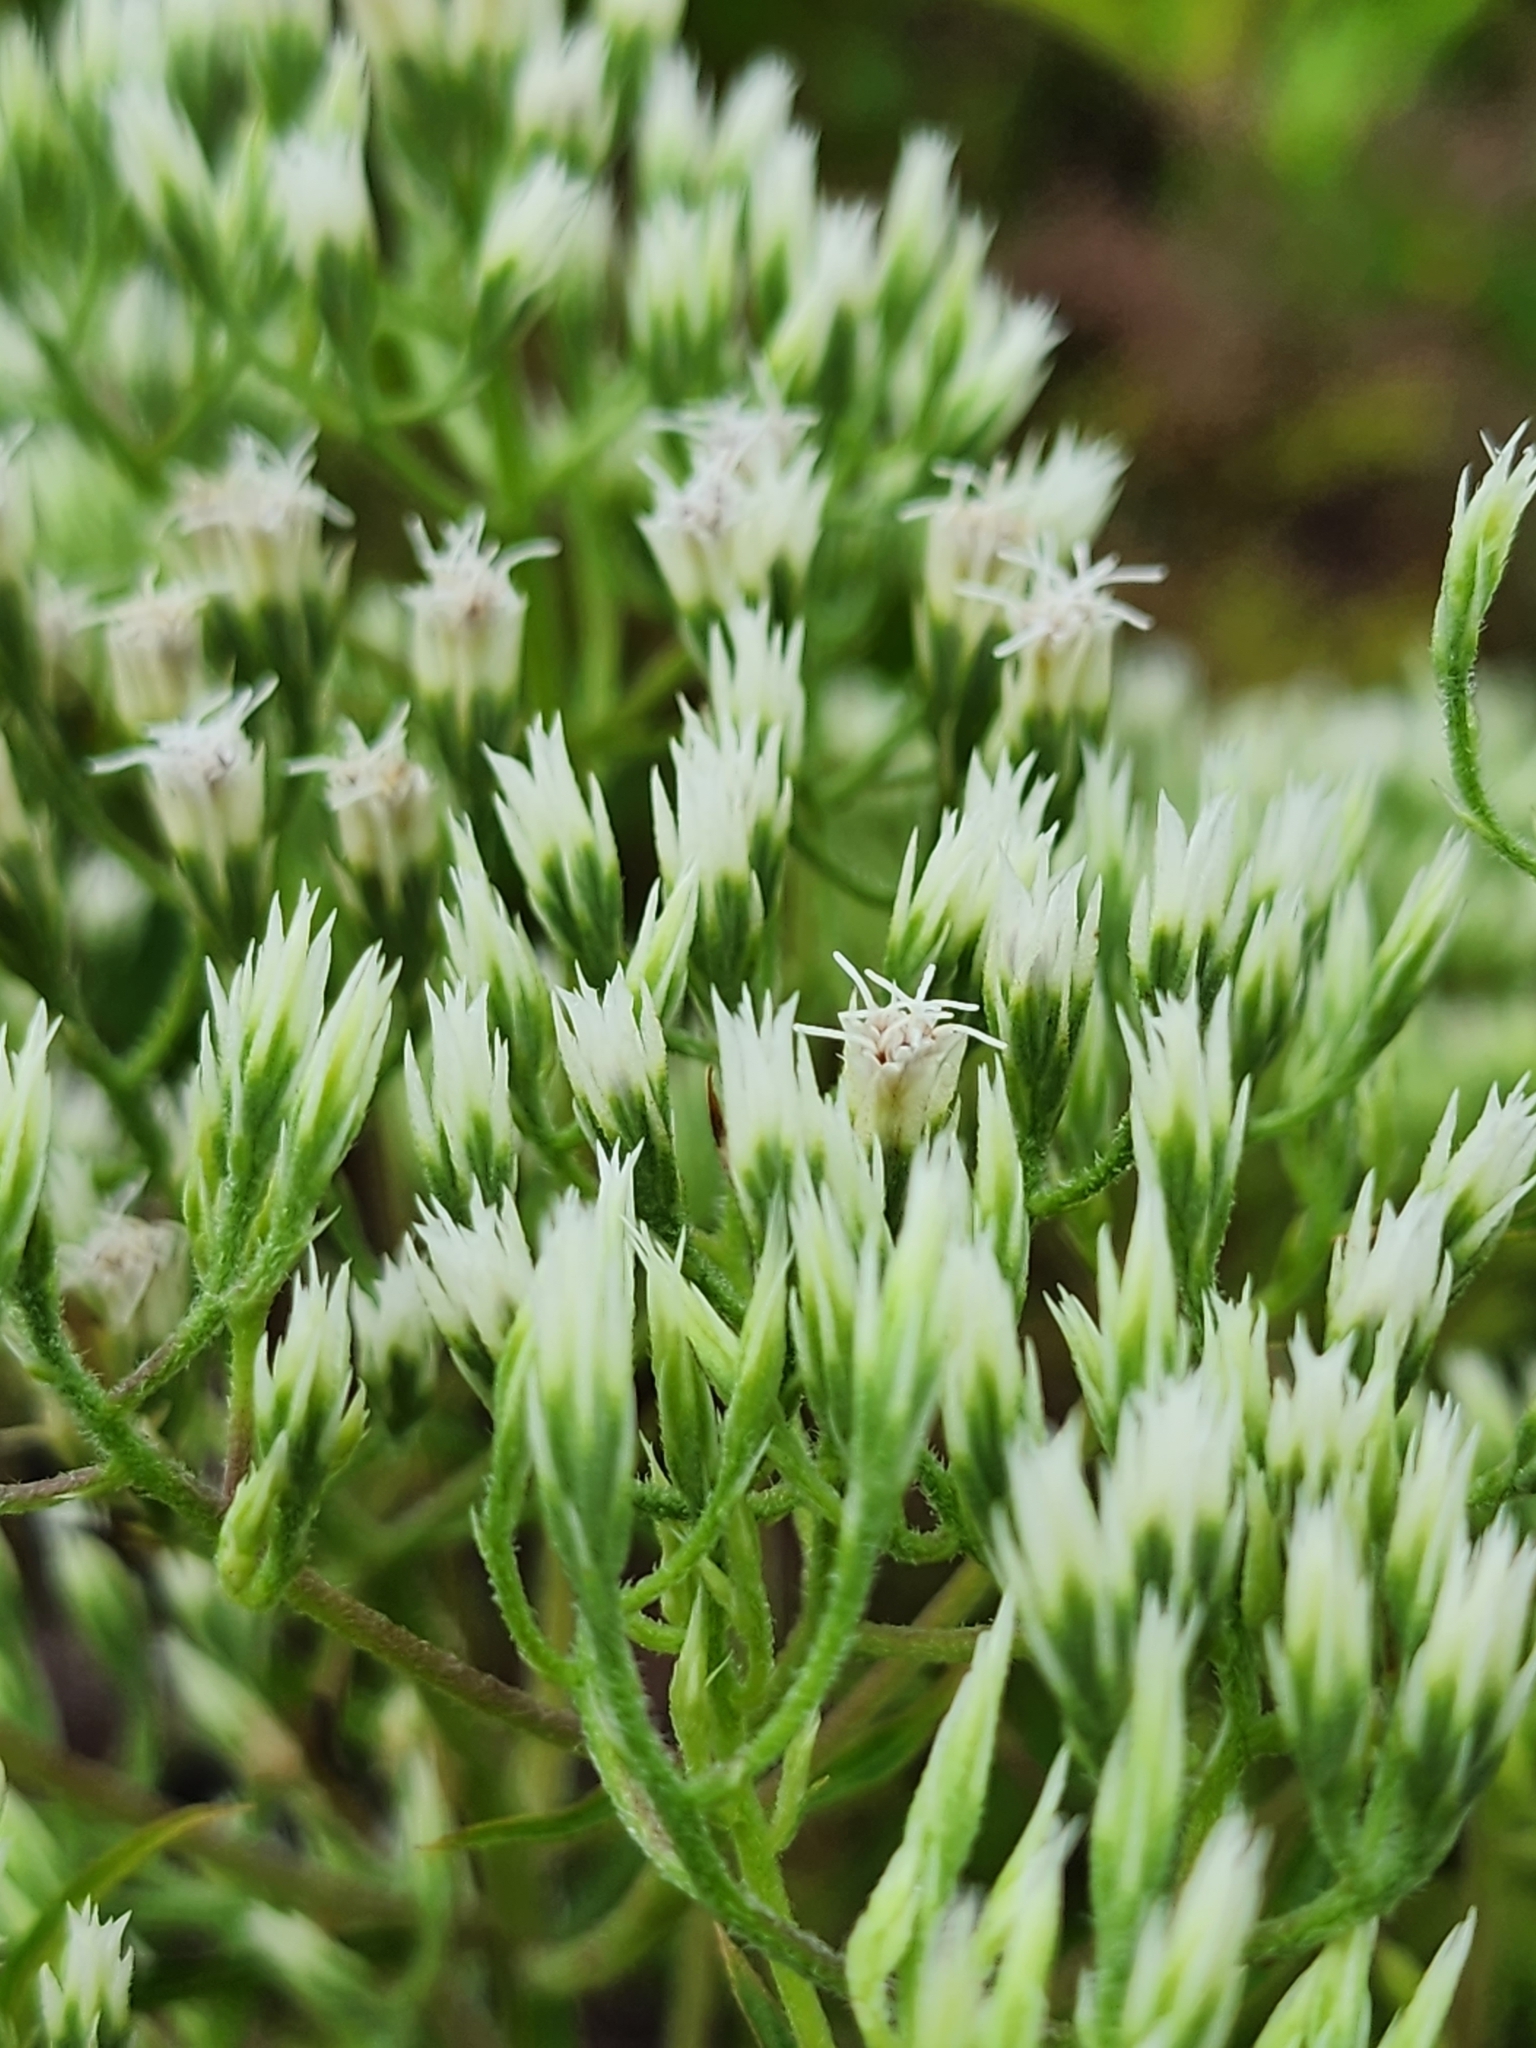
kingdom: Plantae
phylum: Tracheophyta
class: Magnoliopsida
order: Asterales
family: Asteraceae
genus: Eupatorium
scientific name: Eupatorium album
